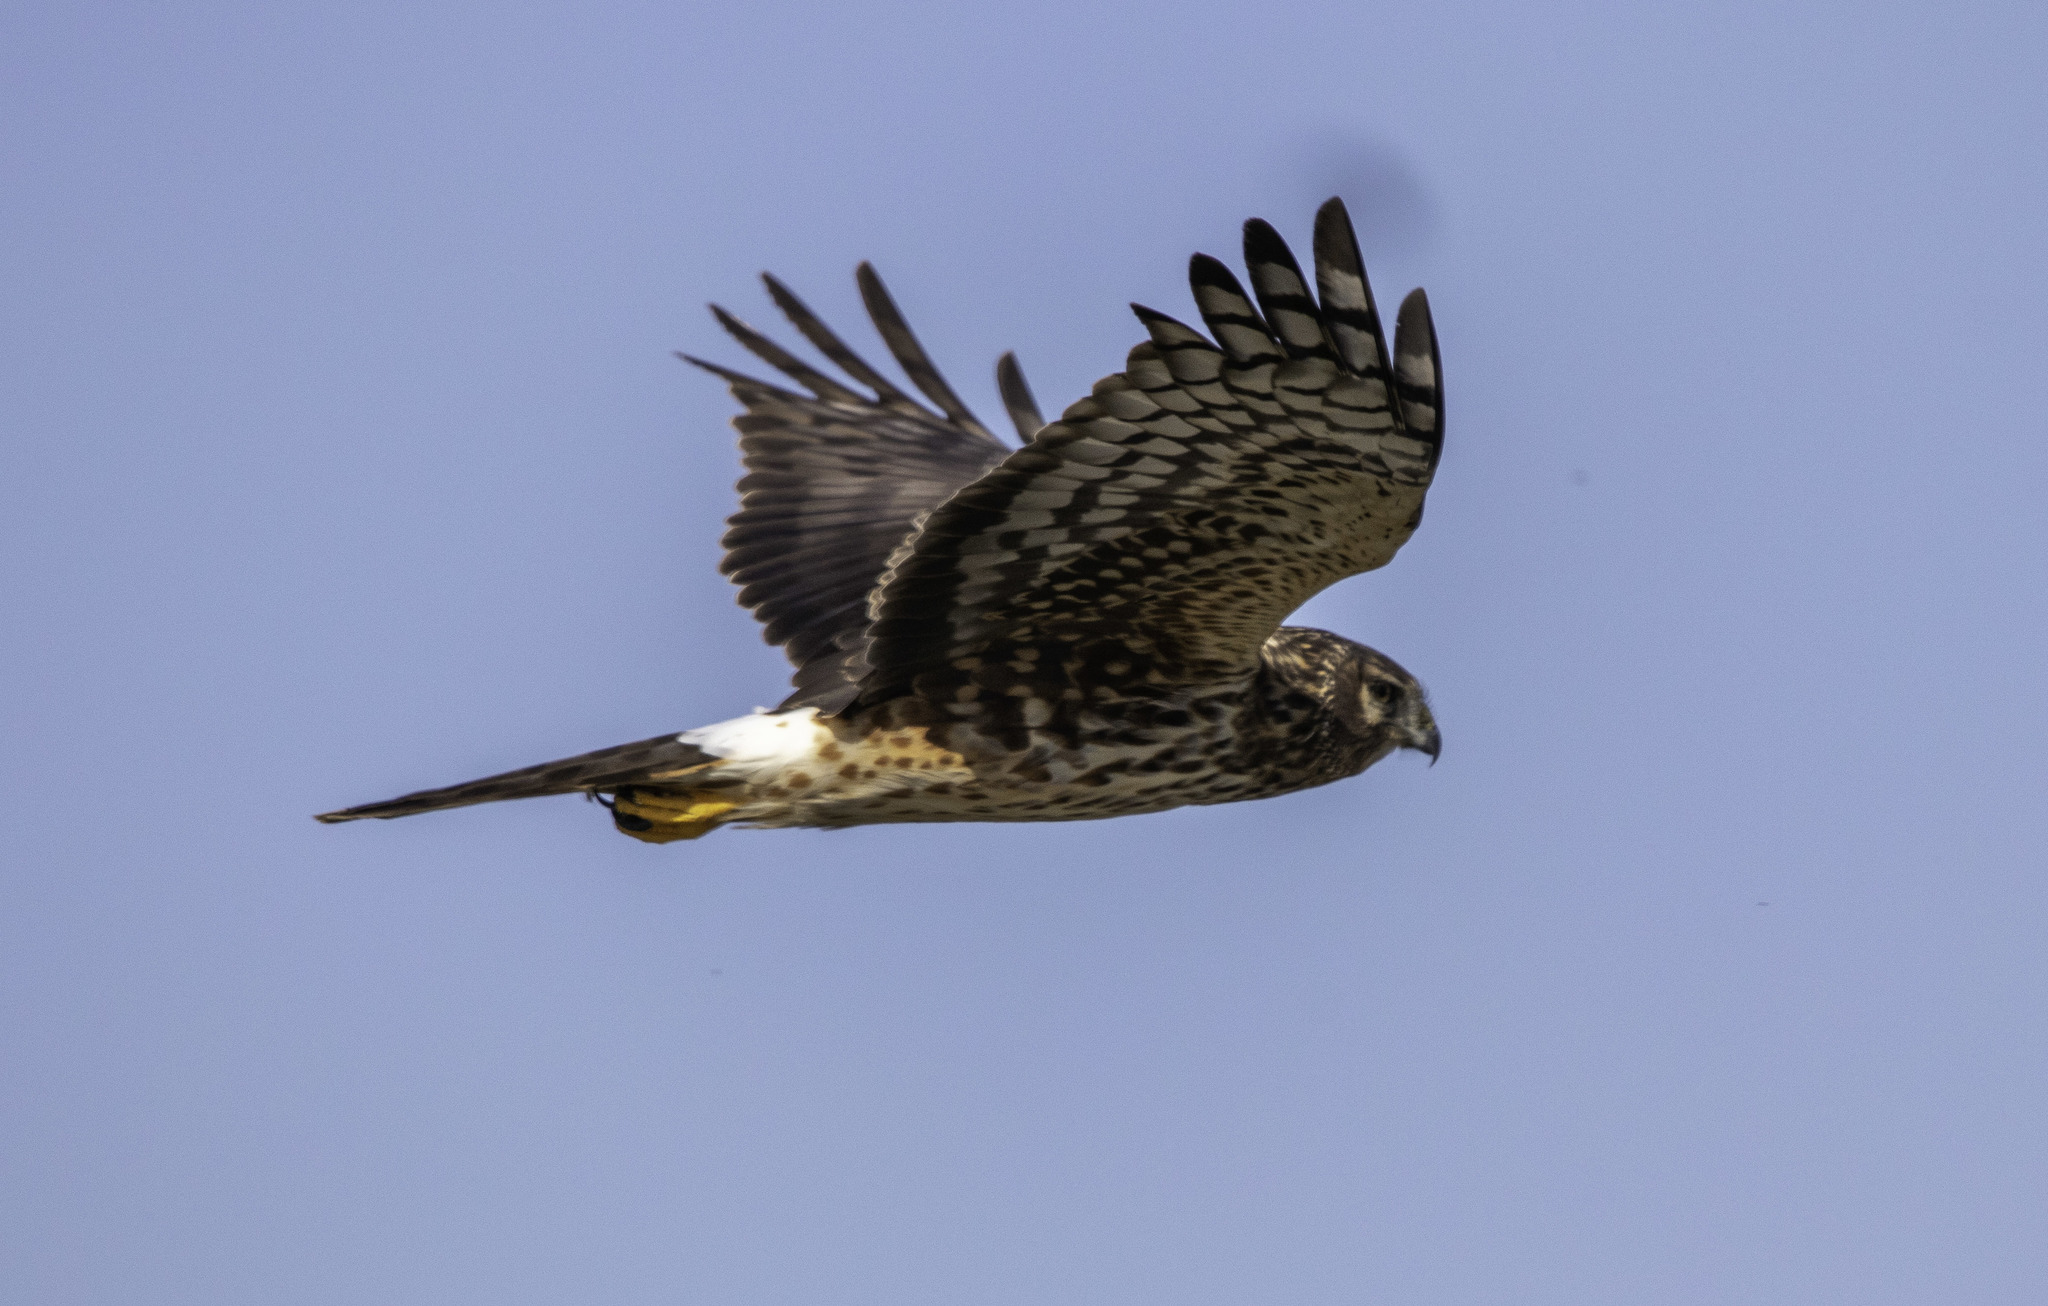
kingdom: Animalia
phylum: Chordata
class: Aves
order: Accipitriformes
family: Accipitridae
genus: Circus
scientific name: Circus cyaneus
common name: Hen harrier
